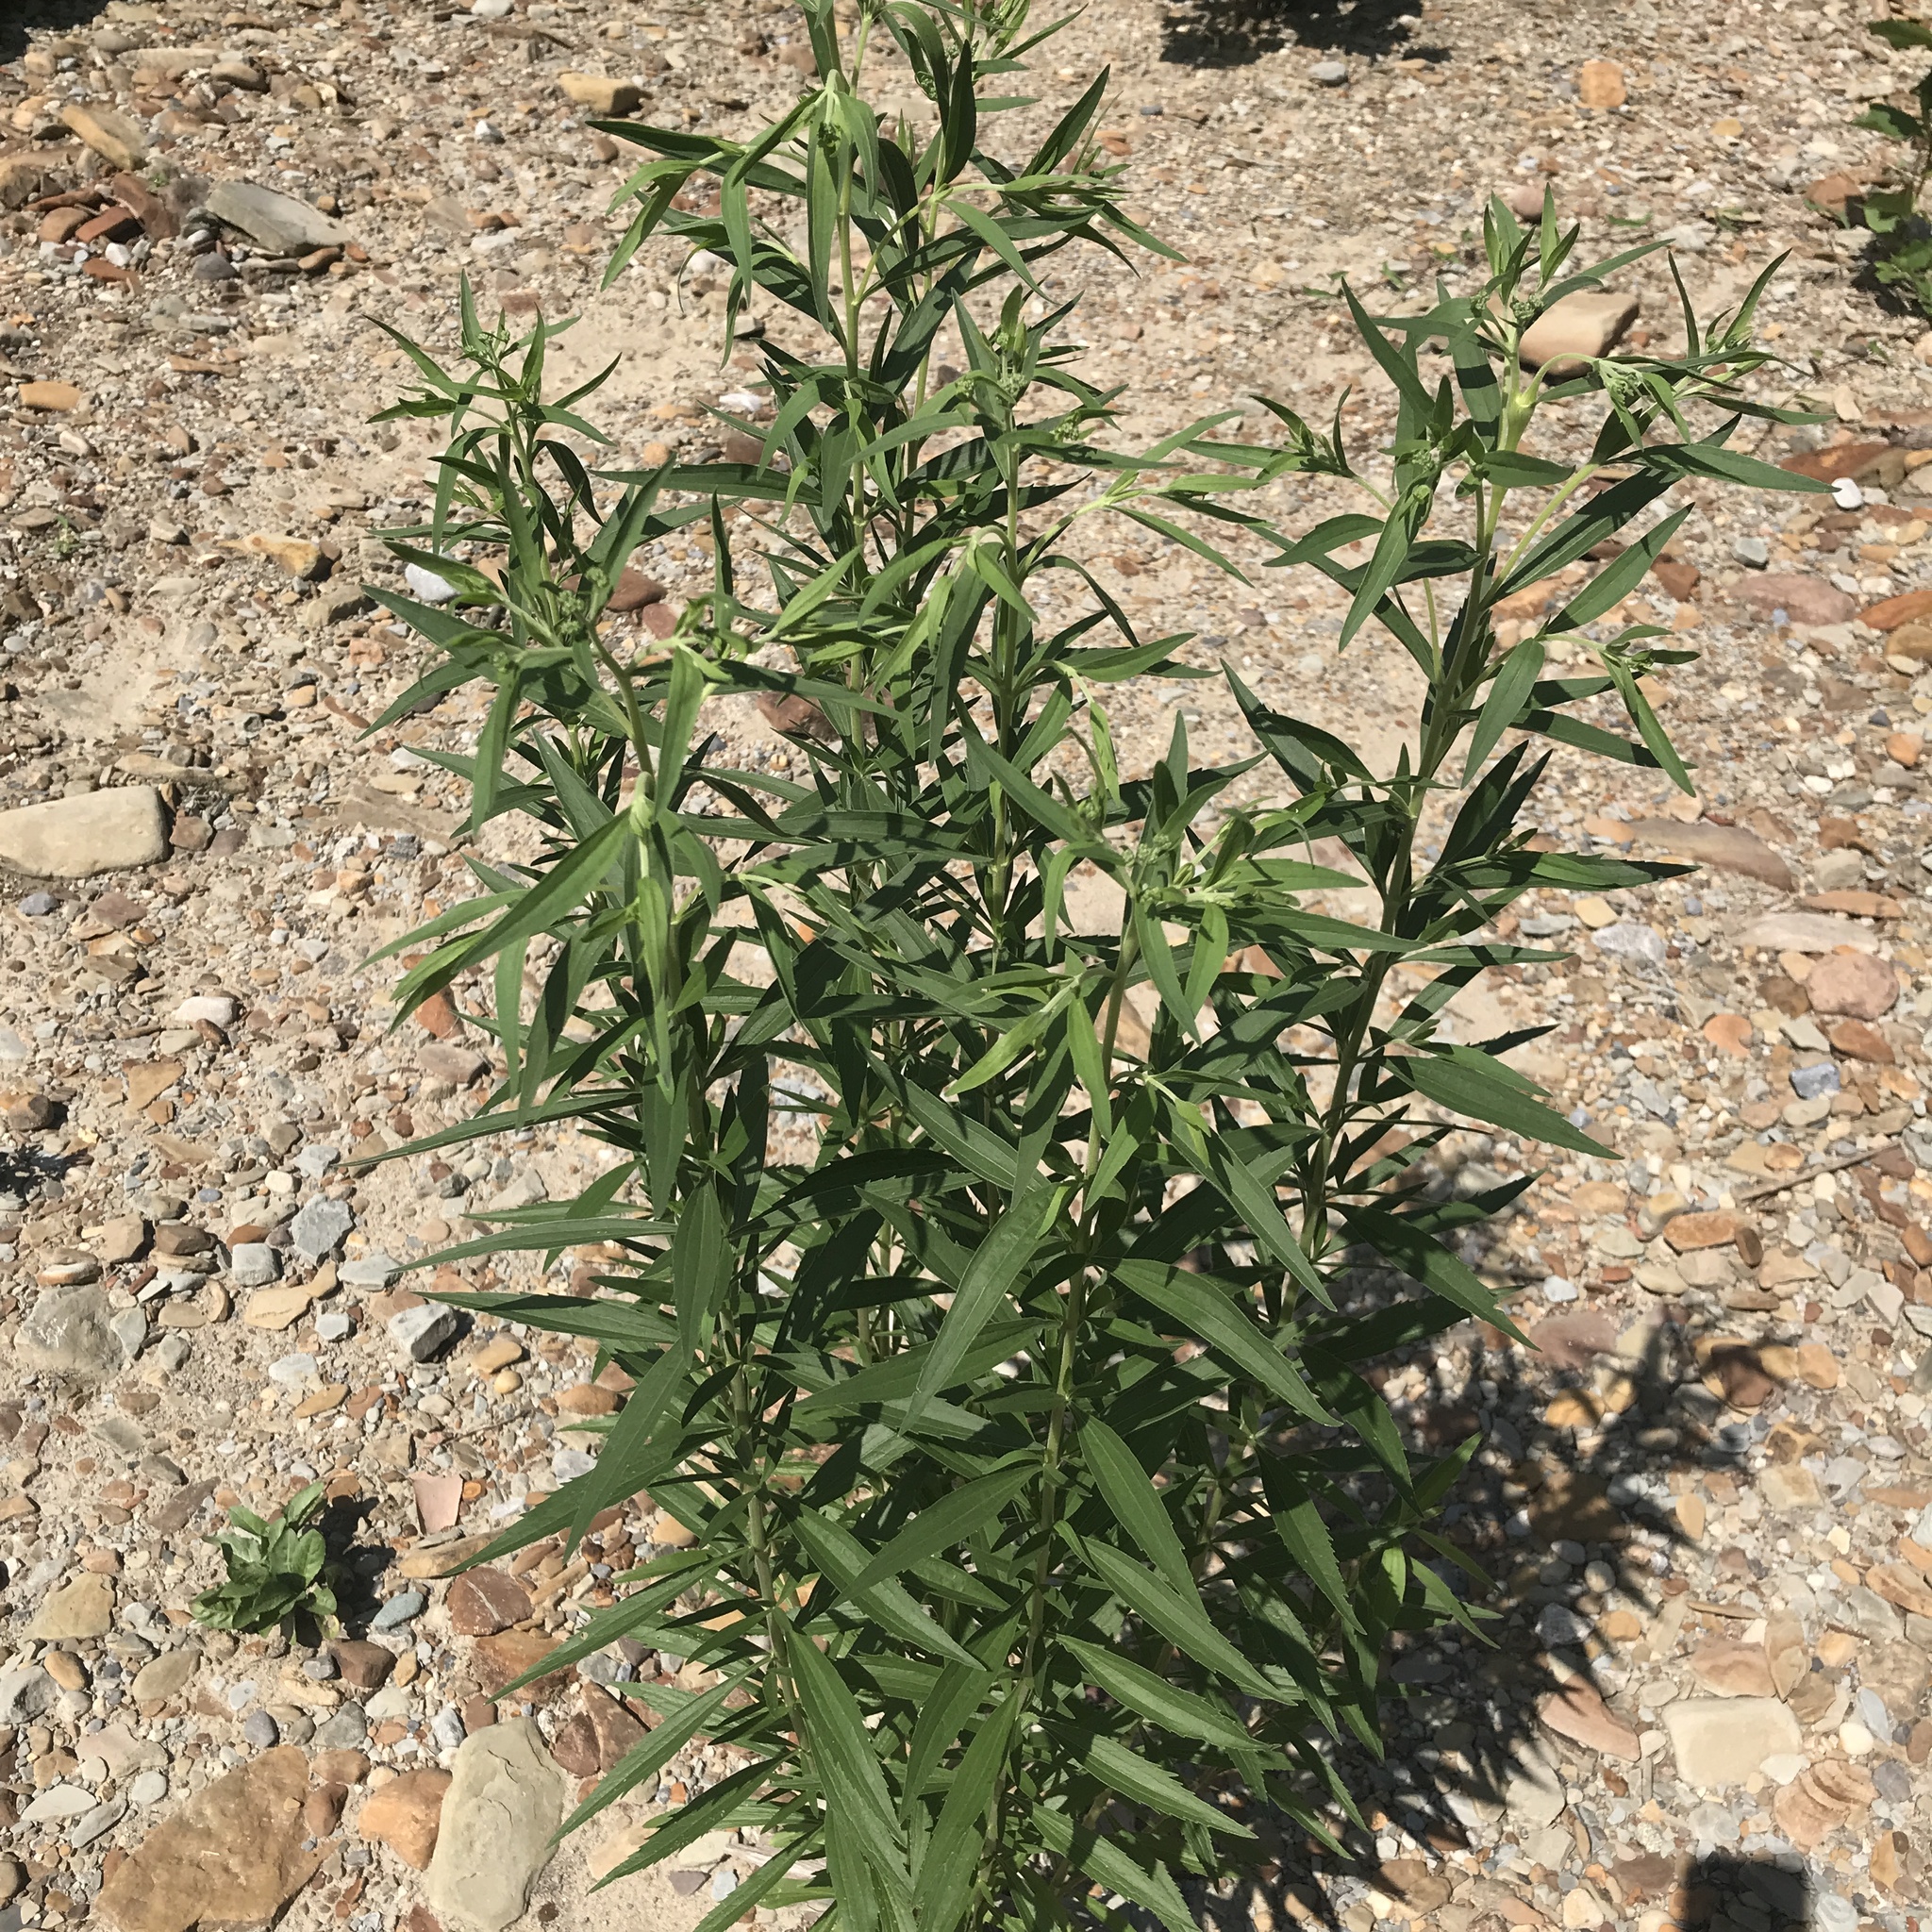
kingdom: Plantae
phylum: Tracheophyta
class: Magnoliopsida
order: Asterales
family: Asteraceae
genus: Eupatorium
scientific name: Eupatorium altissimum
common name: Tall thoroughwort
